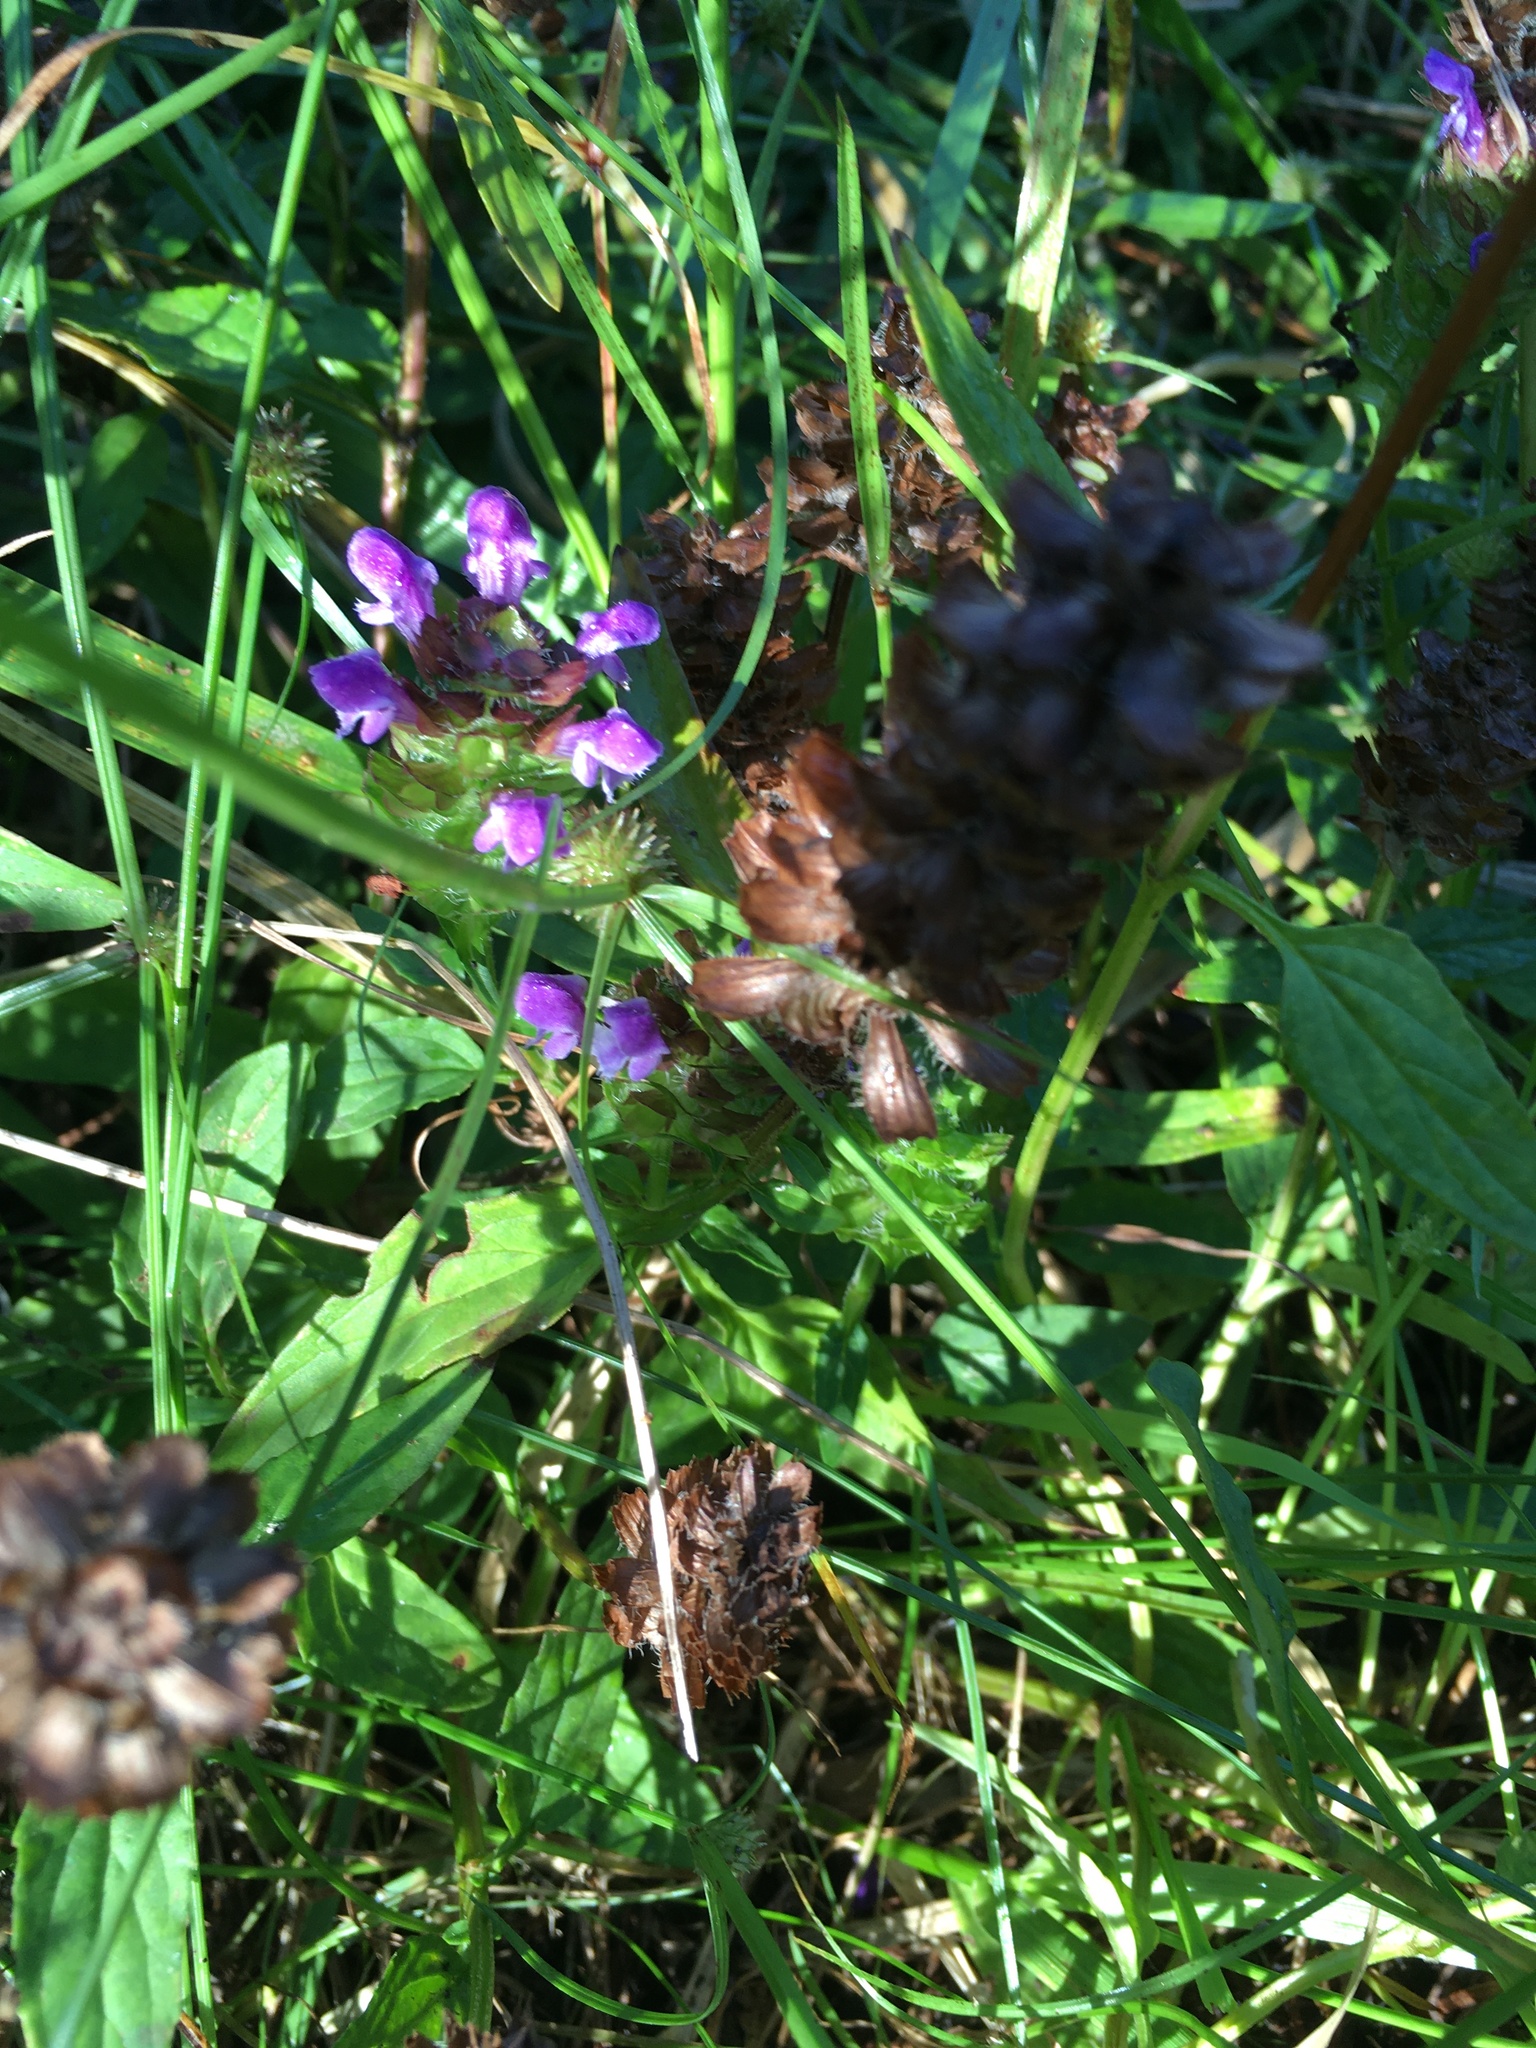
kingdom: Plantae
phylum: Tracheophyta
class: Magnoliopsida
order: Lamiales
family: Lamiaceae
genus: Prunella
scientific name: Prunella vulgaris
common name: Heal-all
